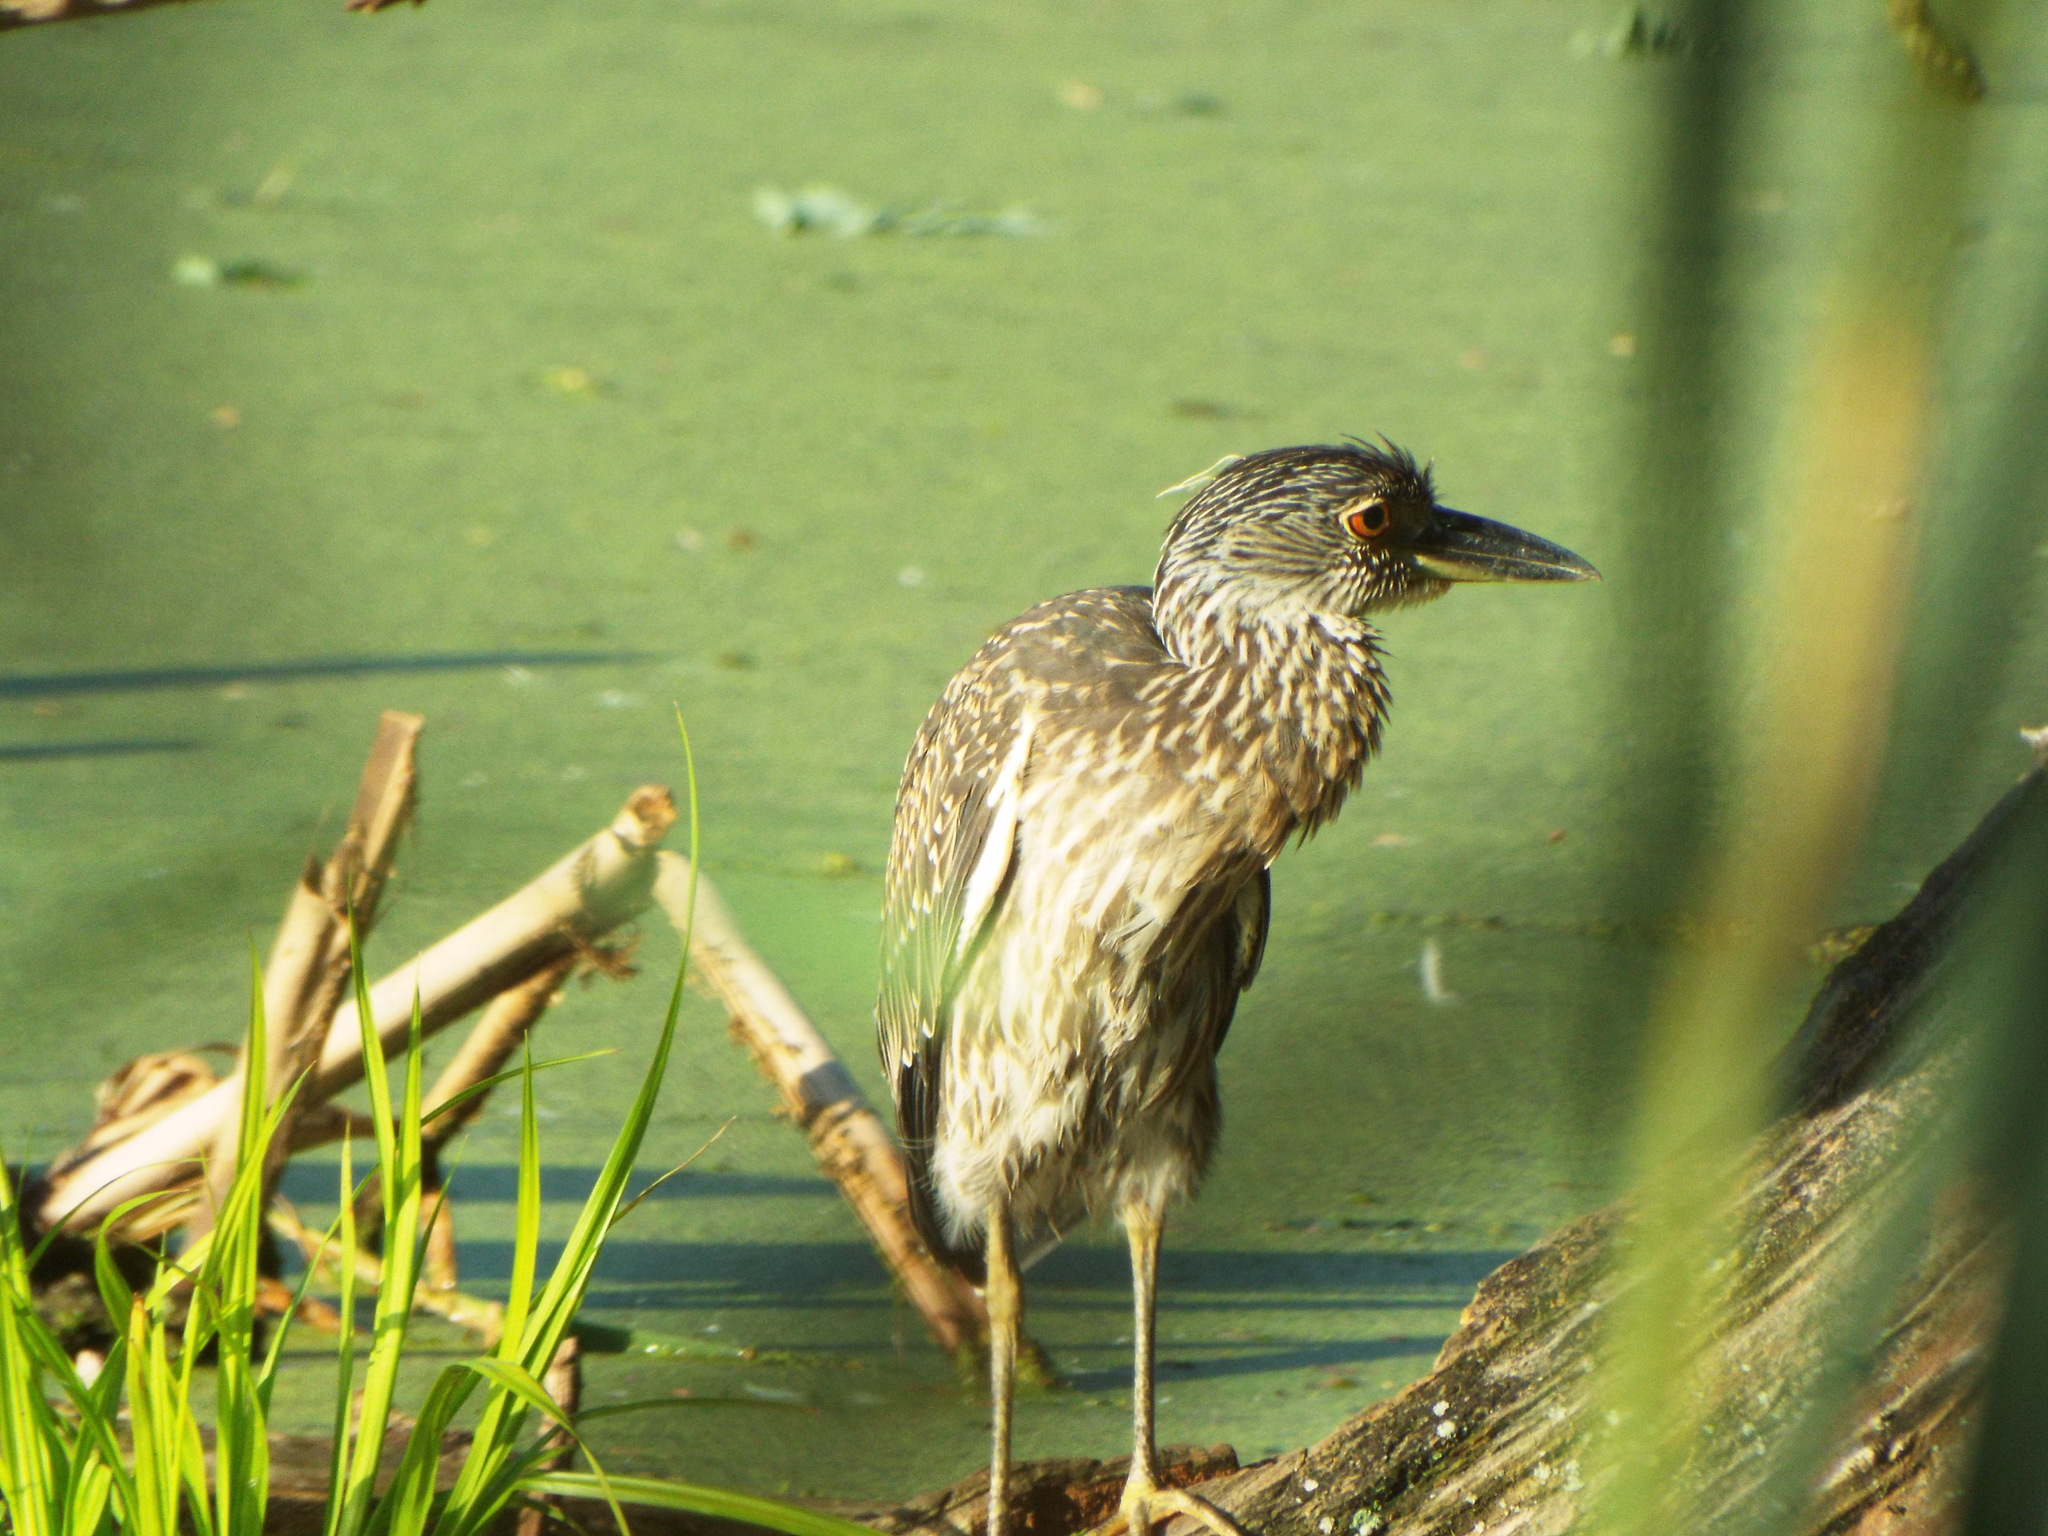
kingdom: Animalia
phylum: Chordata
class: Aves
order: Pelecaniformes
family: Ardeidae
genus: Nyctanassa
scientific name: Nyctanassa violacea
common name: Yellow-crowned night heron
